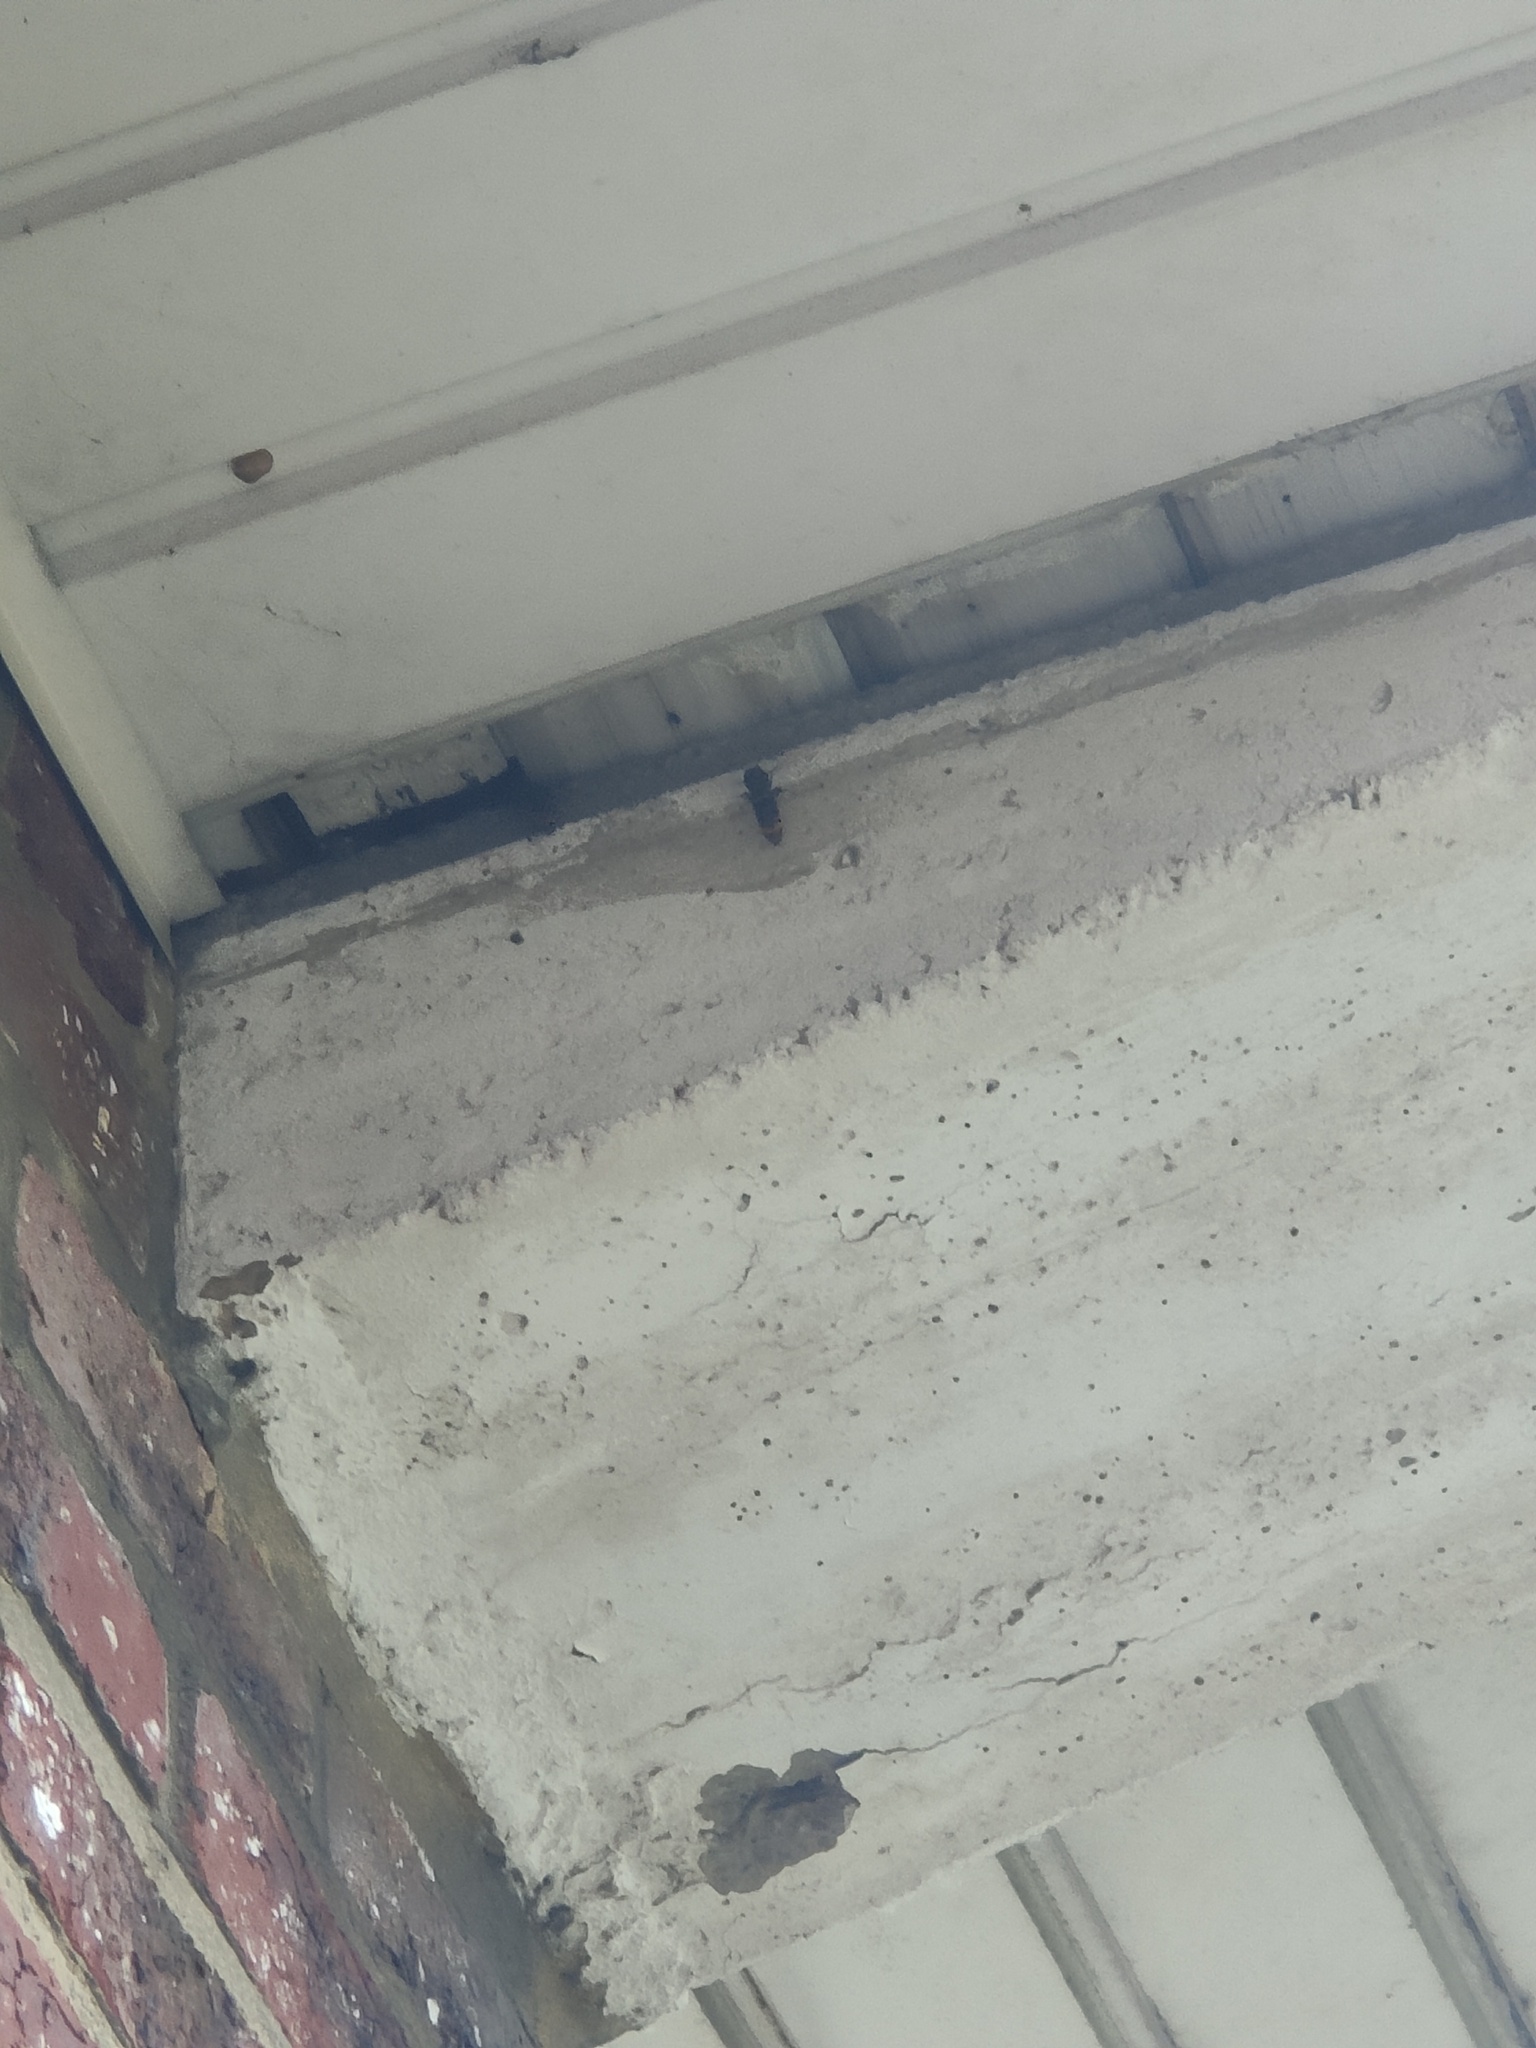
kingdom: Animalia
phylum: Arthropoda
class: Insecta
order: Hymenoptera
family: Vespidae
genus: Vespa
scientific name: Vespa velutina
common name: Asian hornet
